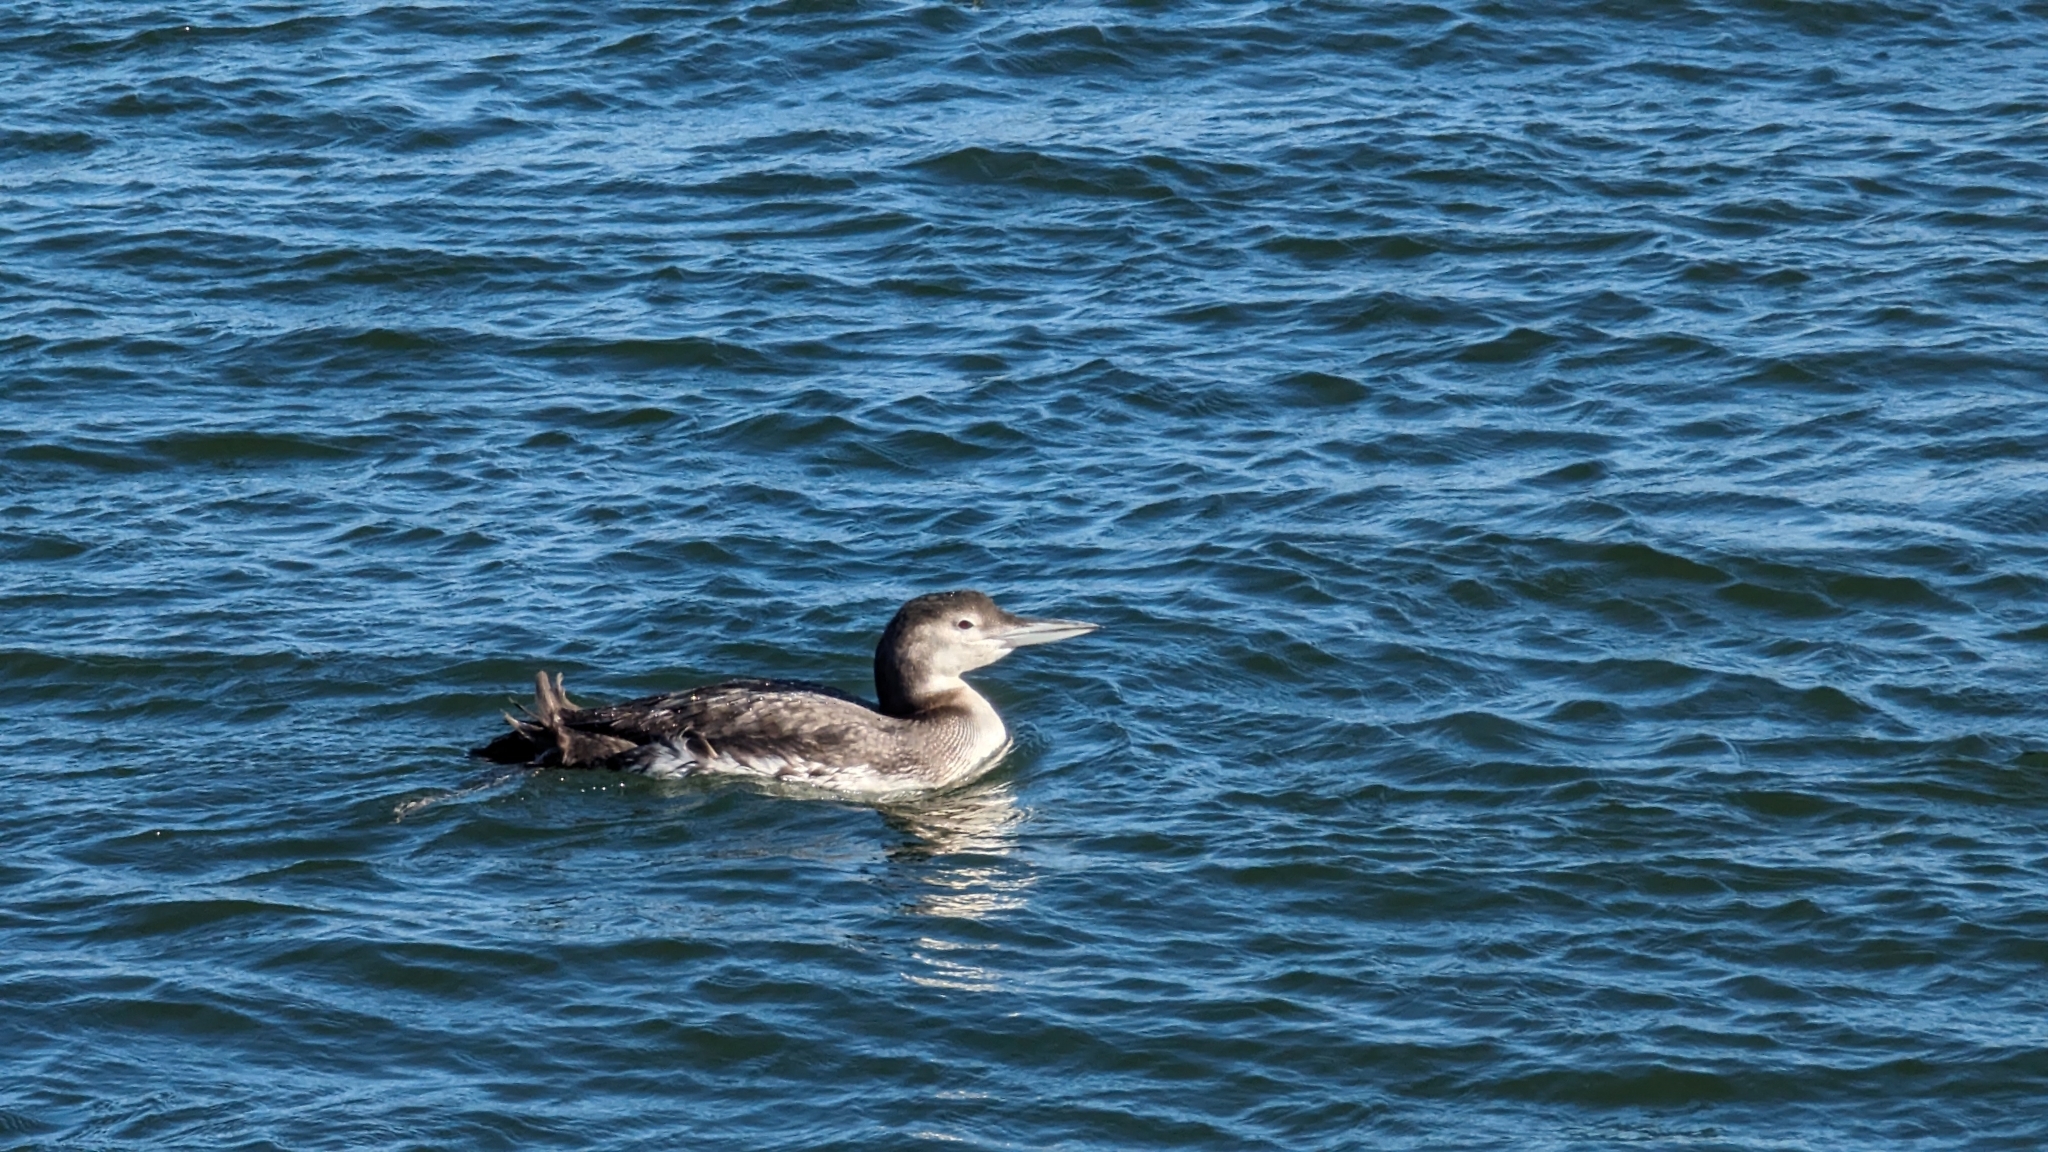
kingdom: Animalia
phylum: Chordata
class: Aves
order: Gaviiformes
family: Gaviidae
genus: Gavia
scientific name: Gavia immer
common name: Common loon
